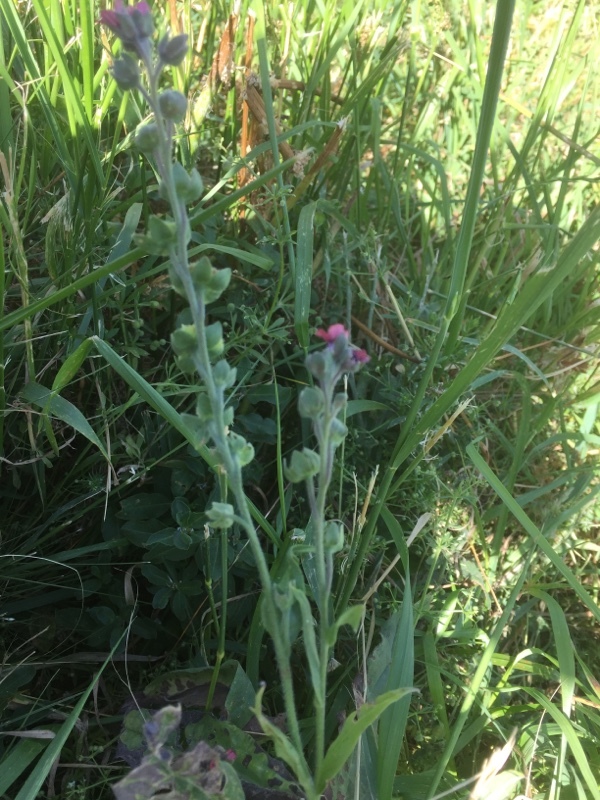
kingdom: Plantae
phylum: Tracheophyta
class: Magnoliopsida
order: Boraginales
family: Boraginaceae
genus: Cynoglossum
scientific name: Cynoglossum officinale
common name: Hound's-tongue
